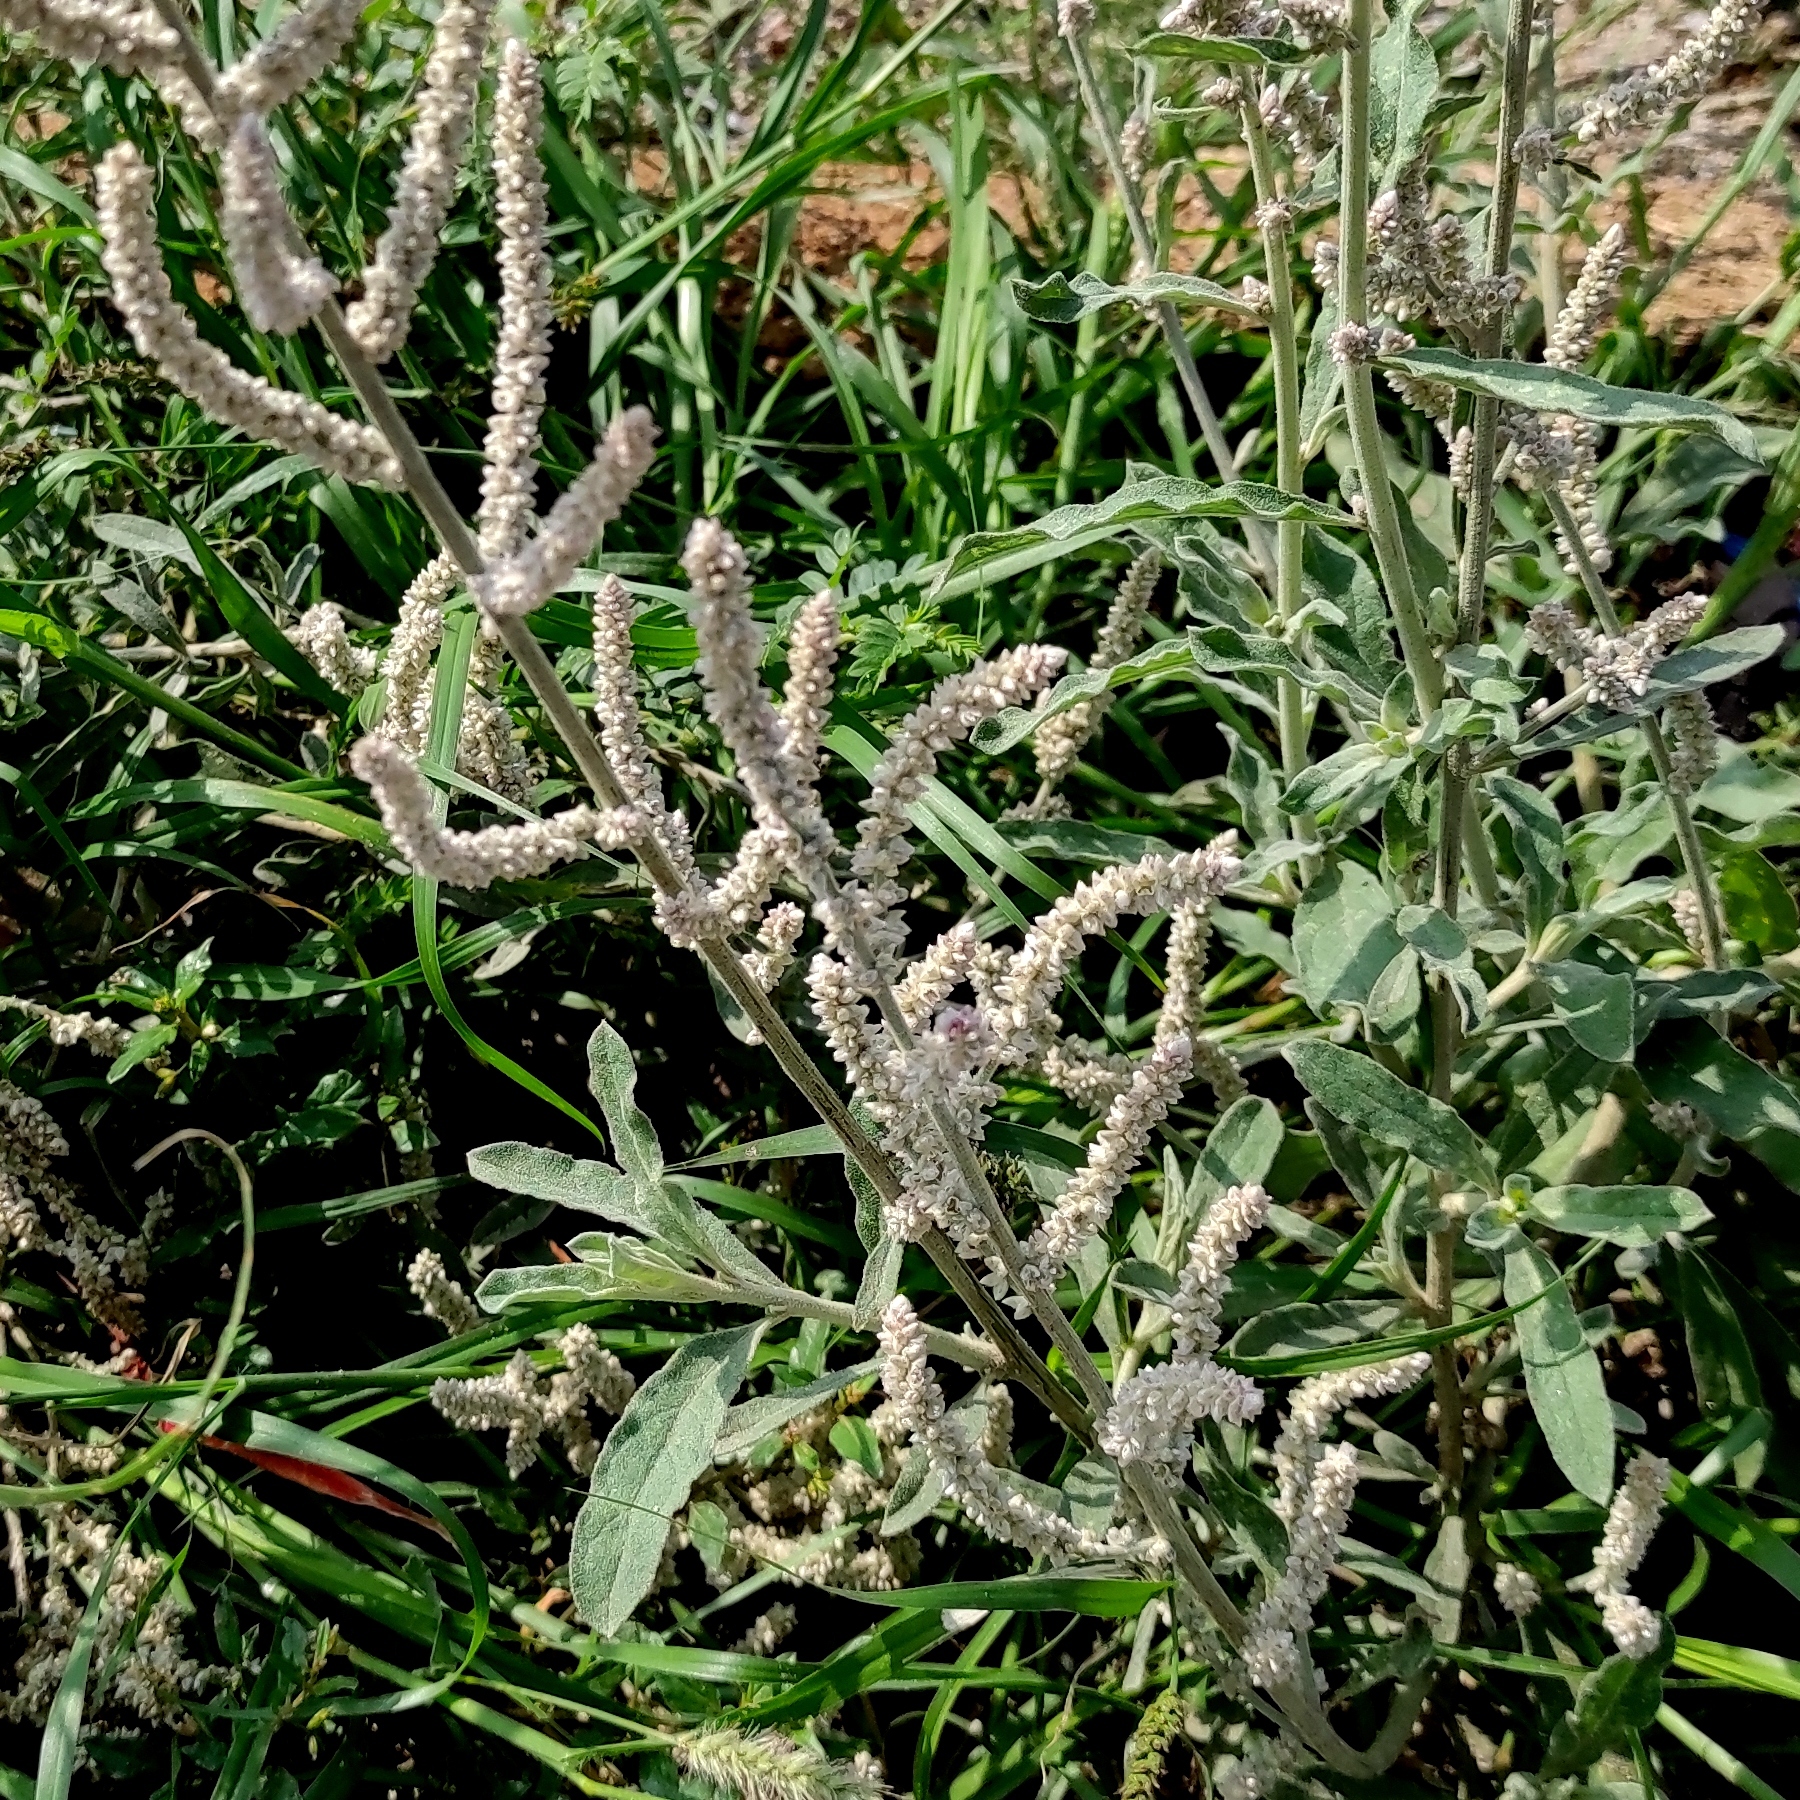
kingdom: Plantae
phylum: Tracheophyta
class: Magnoliopsida
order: Caryophyllales
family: Amaranthaceae
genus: Aerva
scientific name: Aerva javanica
